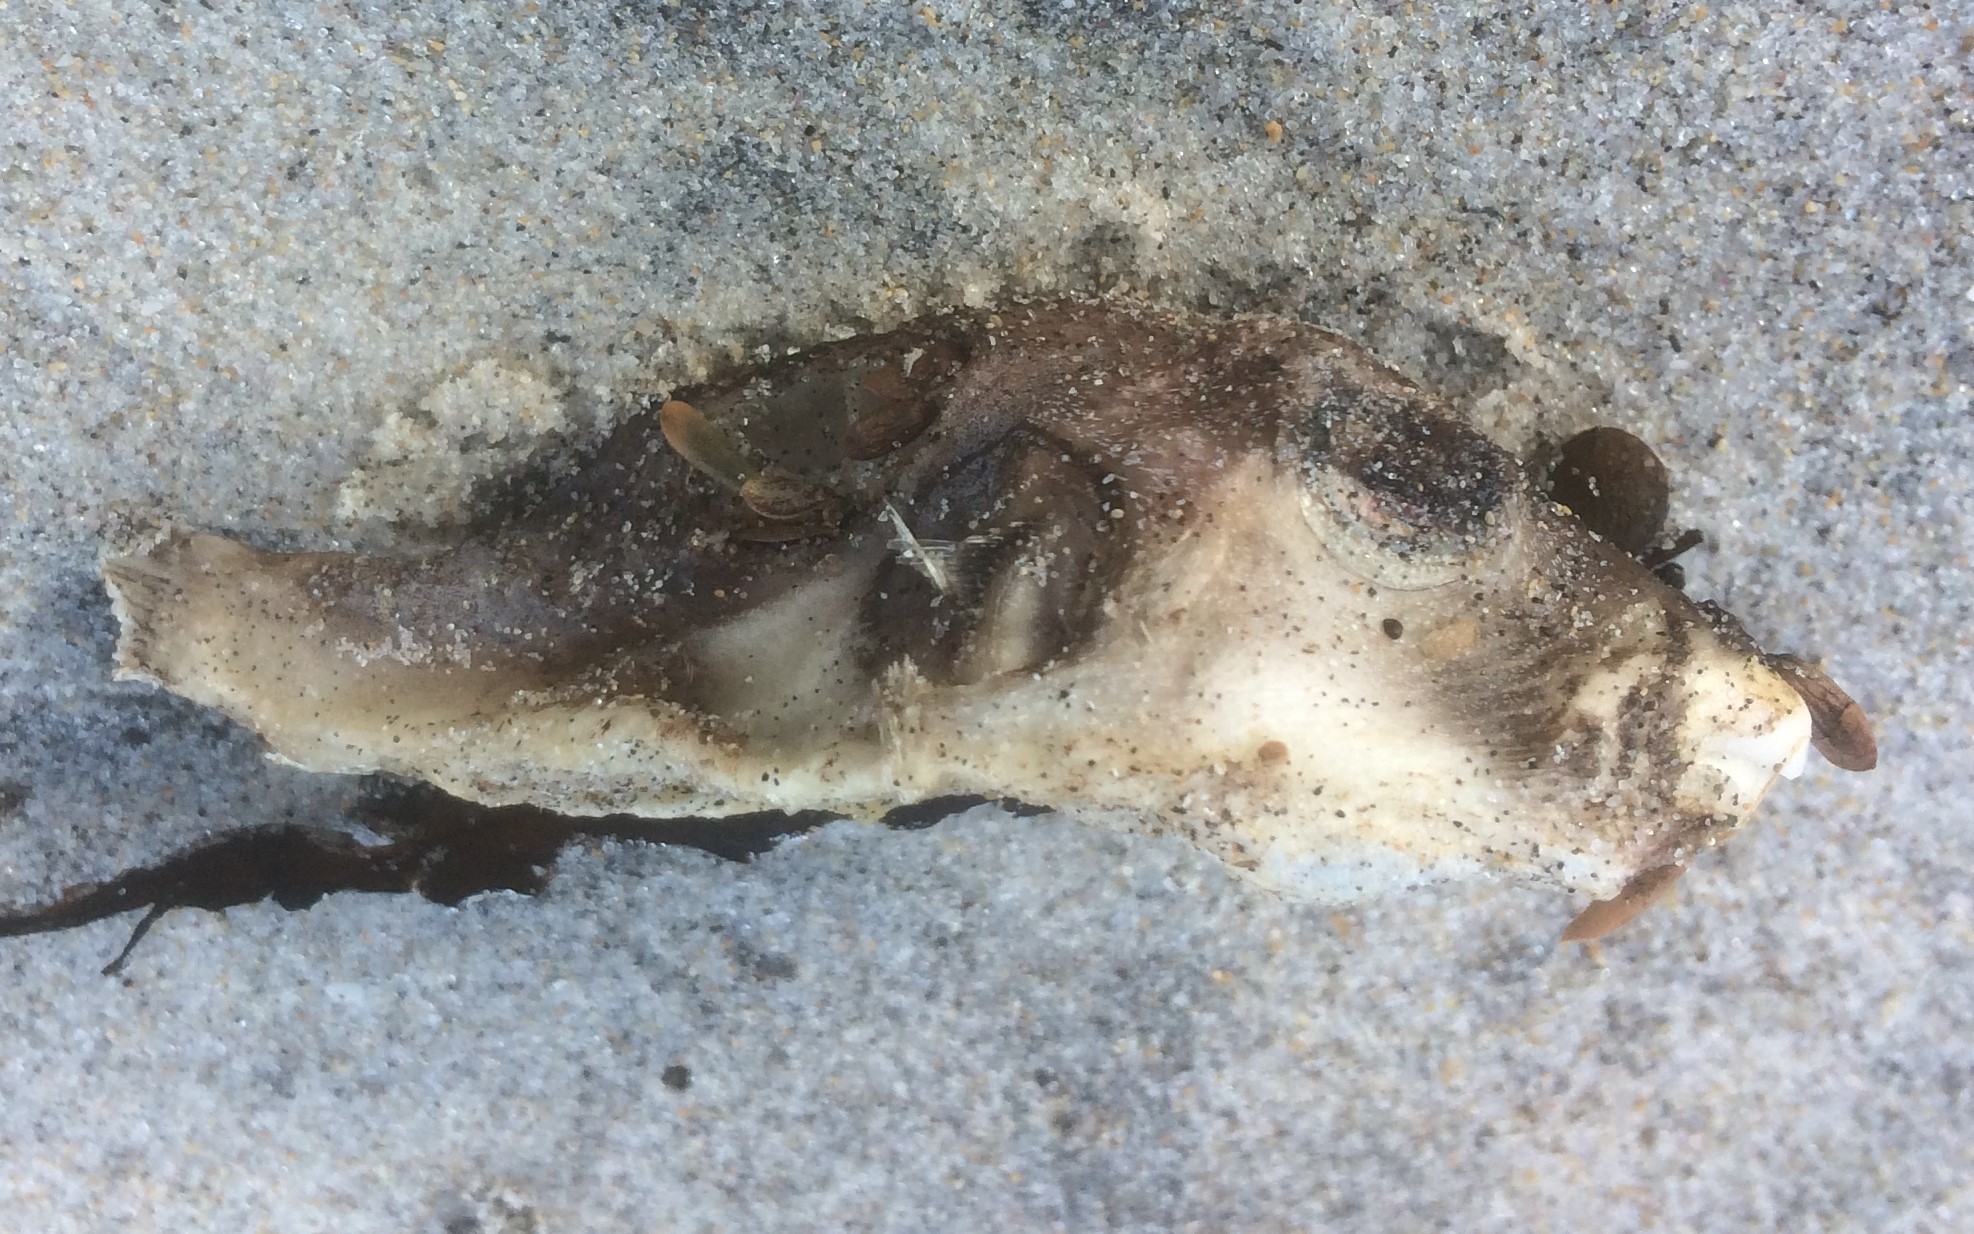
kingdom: Animalia
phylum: Chordata
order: Tetraodontiformes
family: Tetraodontidae
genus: Omegophora
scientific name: Omegophora armilla
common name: Ringed pufferfish
